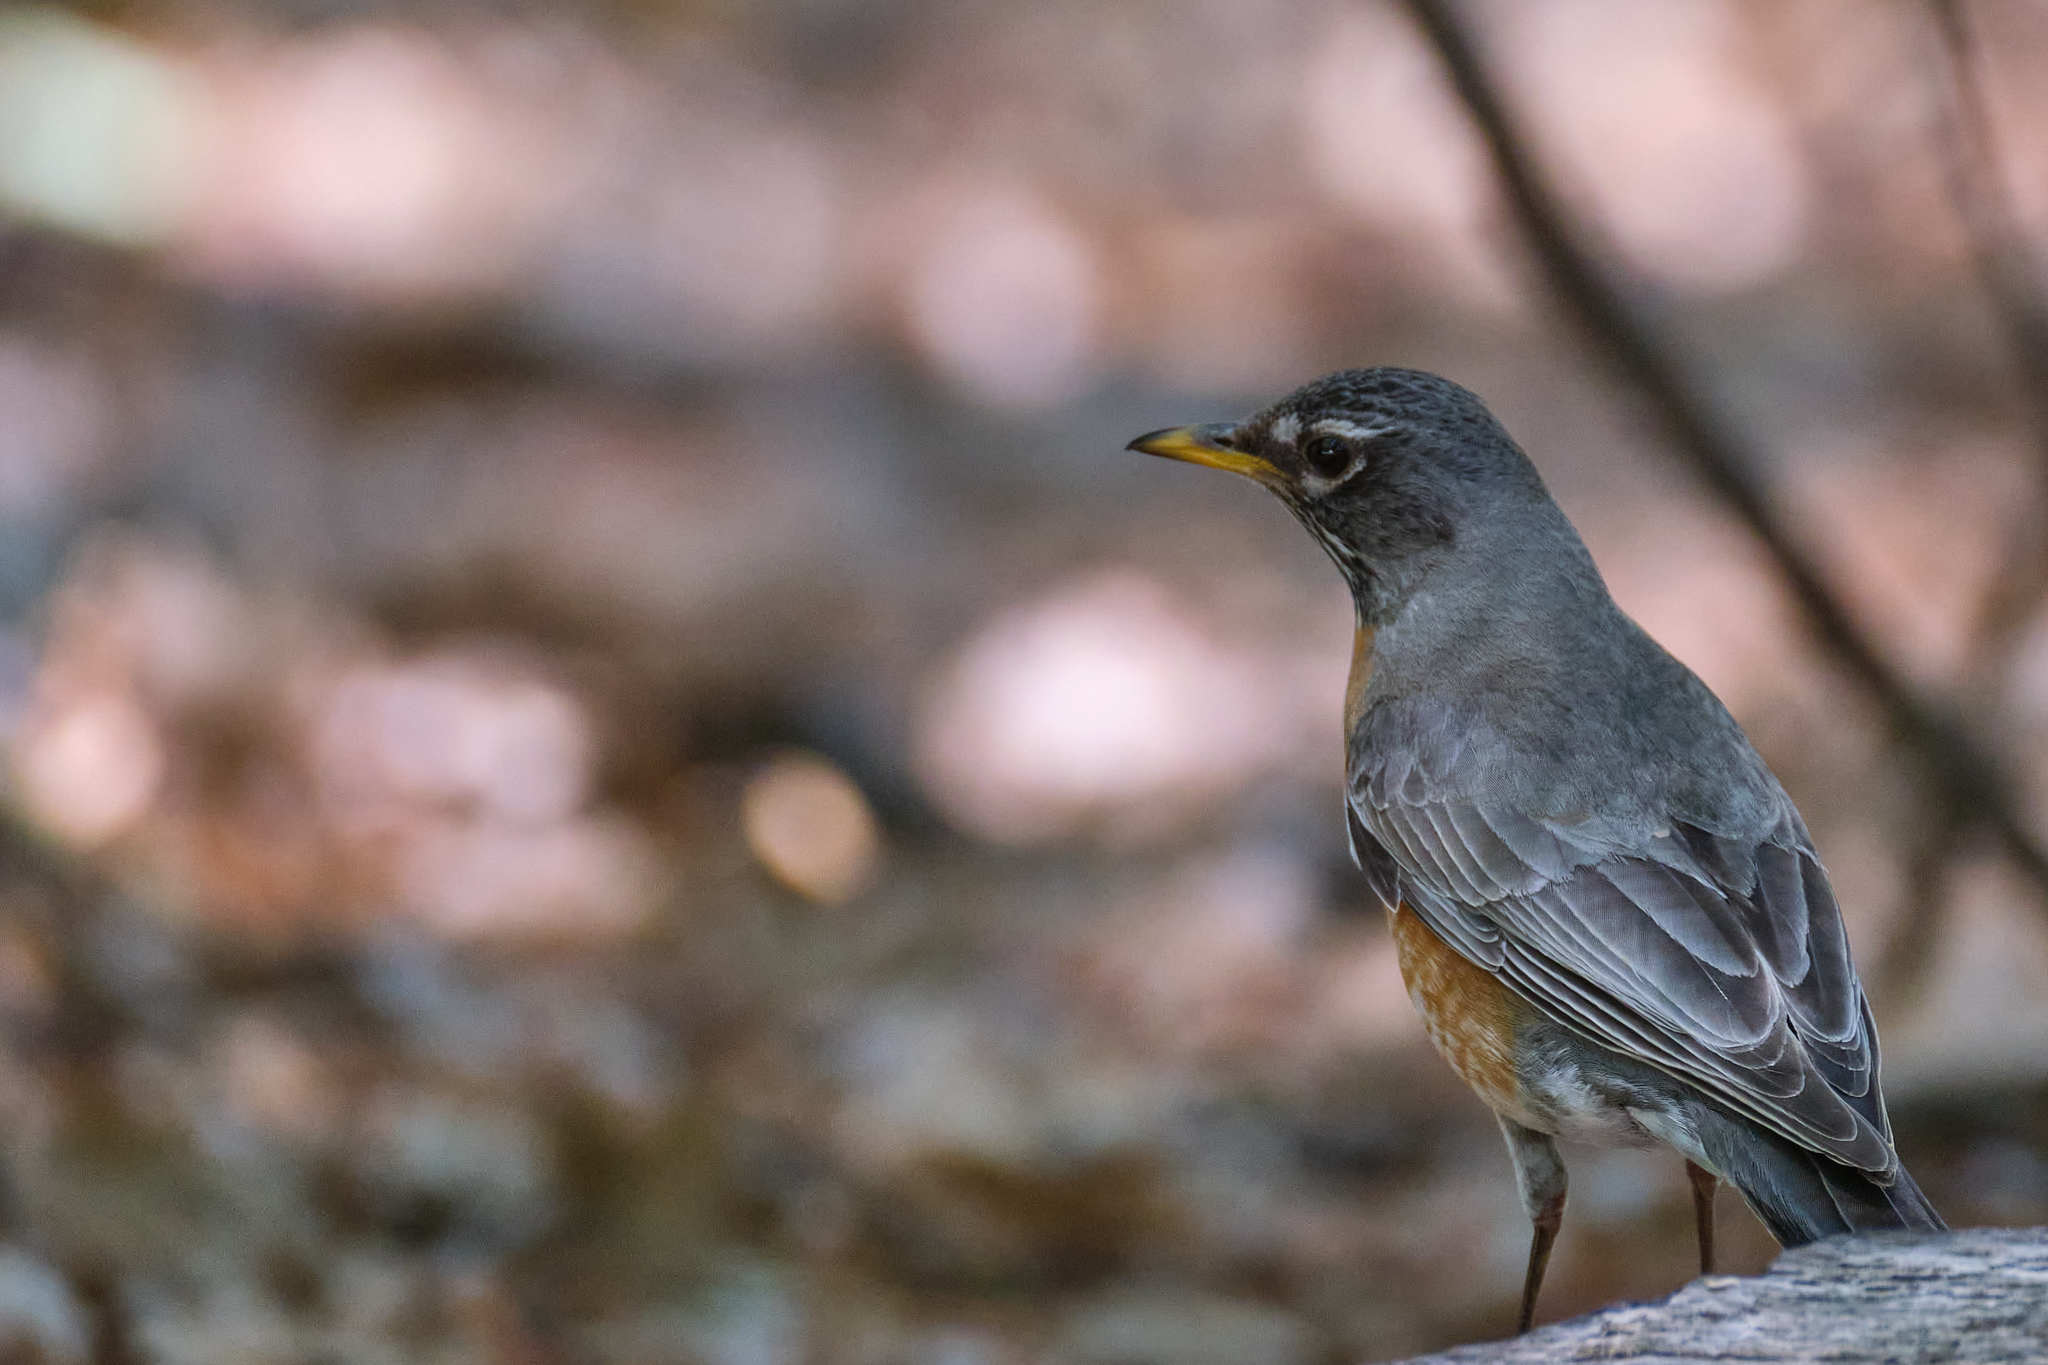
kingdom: Animalia
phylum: Chordata
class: Aves
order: Passeriformes
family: Turdidae
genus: Turdus
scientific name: Turdus migratorius
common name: American robin
